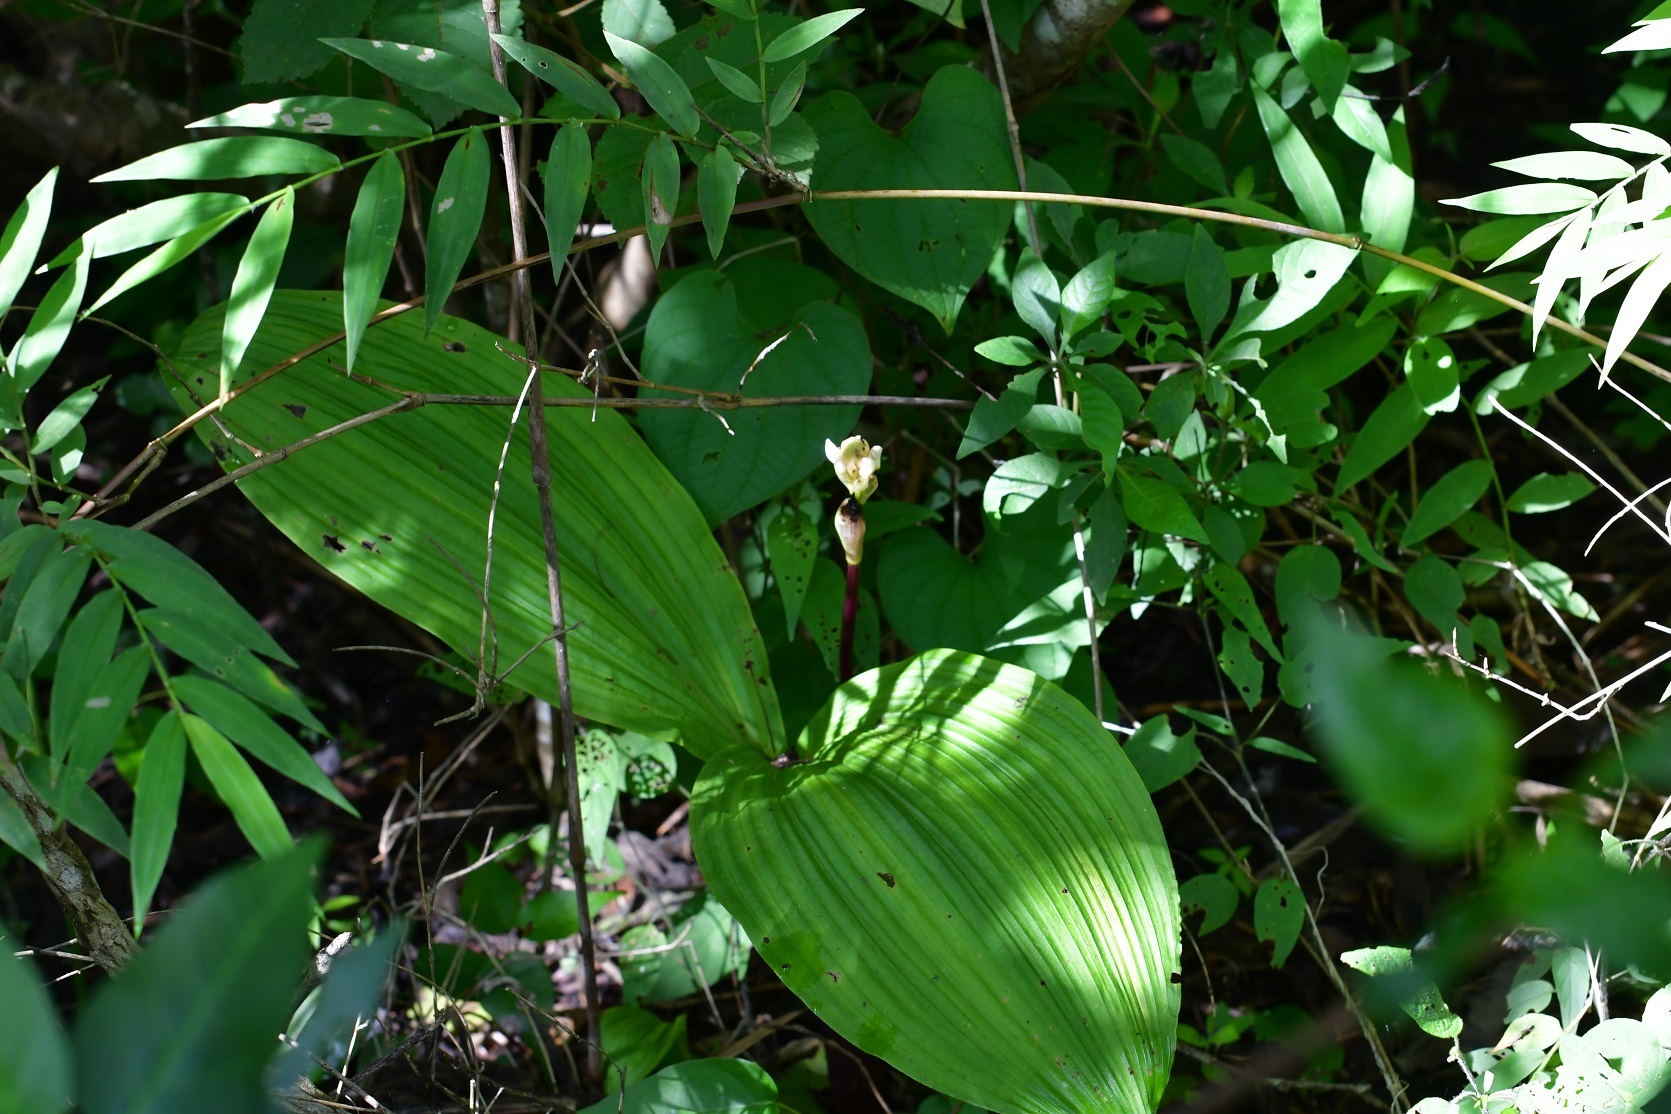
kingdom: Plantae
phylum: Tracheophyta
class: Liliopsida
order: Asparagales
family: Orchidaceae
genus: Govenia
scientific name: Govenia alba
